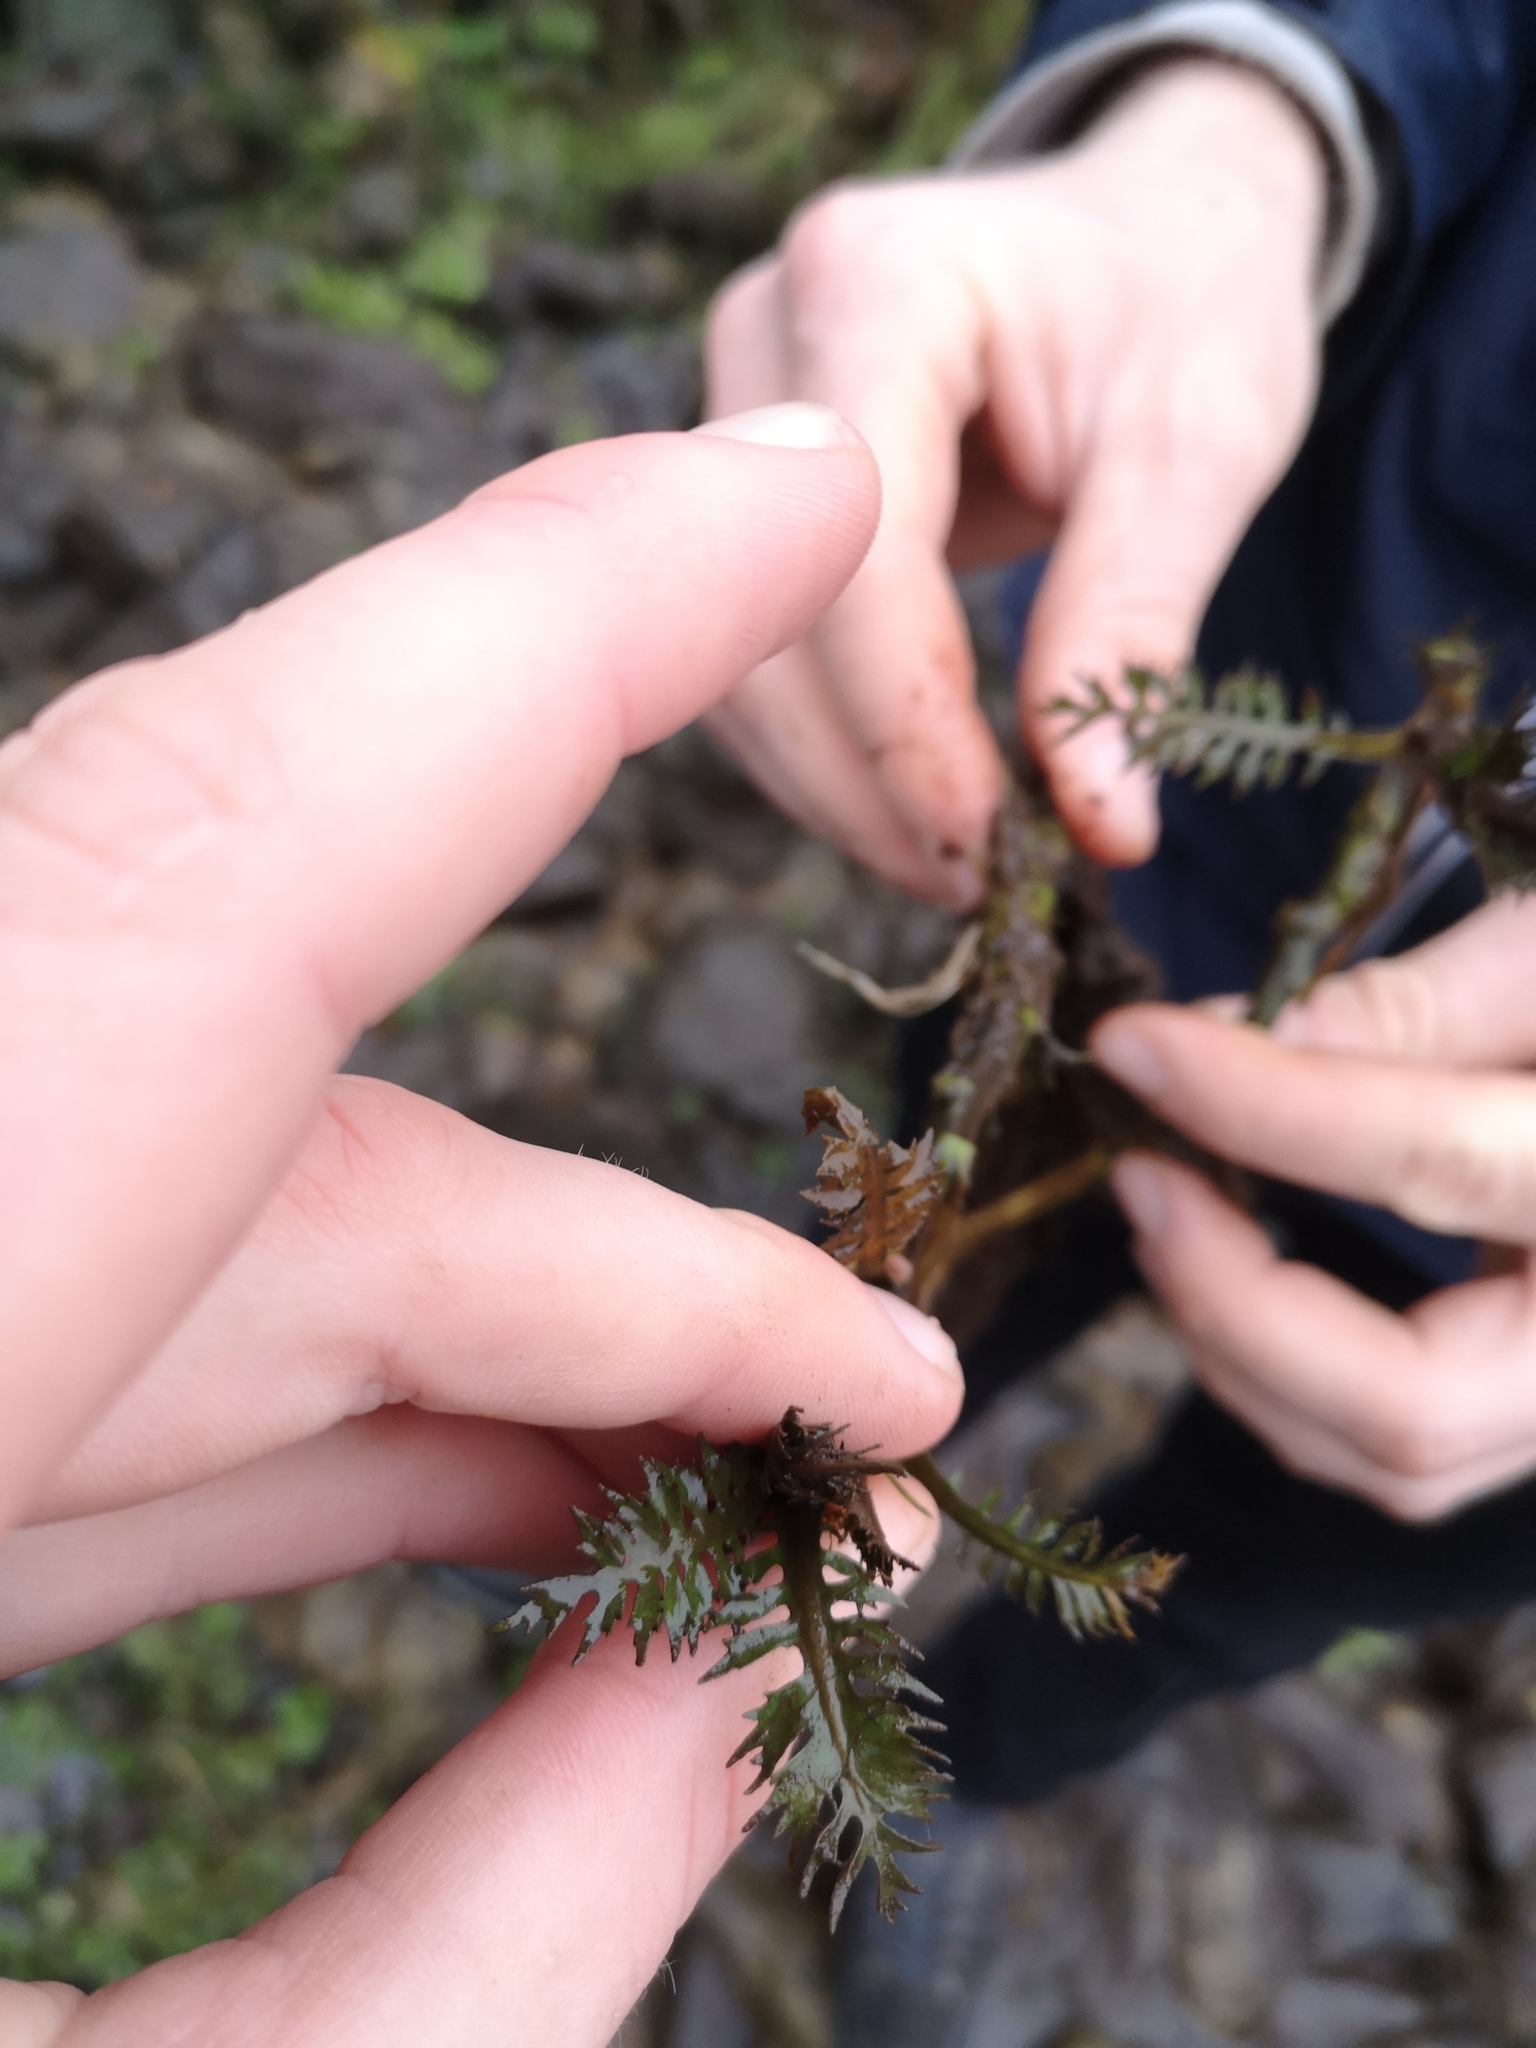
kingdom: Plantae
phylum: Tracheophyta
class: Magnoliopsida
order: Brassicales
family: Brassicaceae
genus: Rorippa
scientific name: Rorippa amphibia
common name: Great yellow-cress
